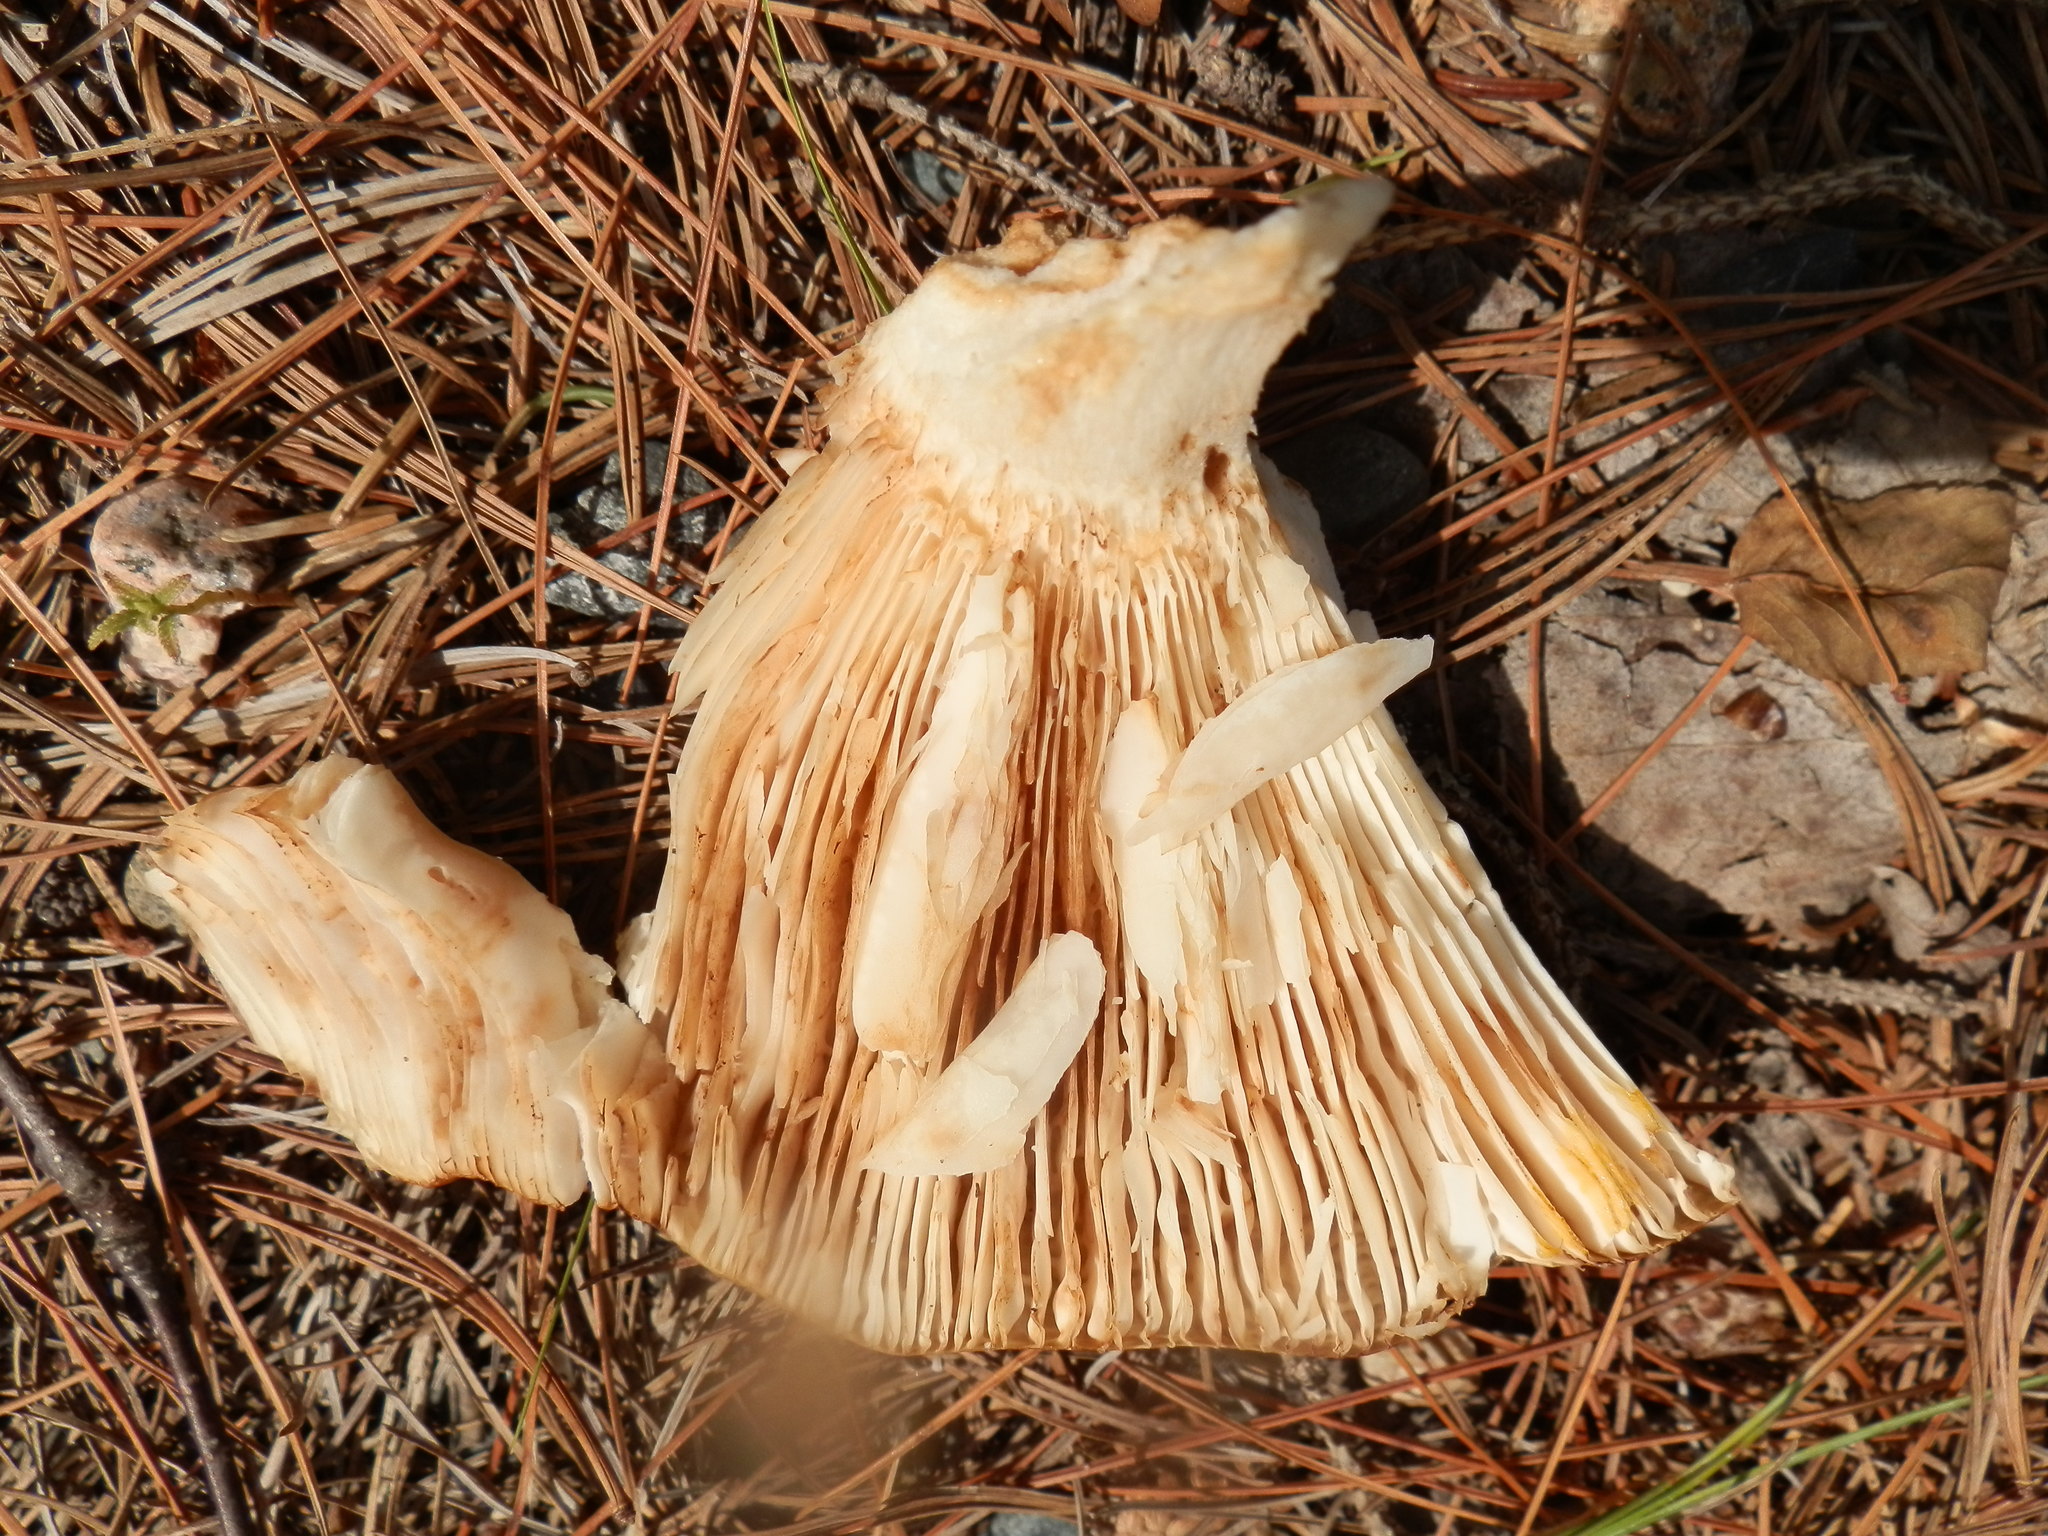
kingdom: Fungi
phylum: Basidiomycota
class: Agaricomycetes
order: Russulales
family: Russulaceae
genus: Russula
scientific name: Russula grata
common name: Bitter almond brittlegill
